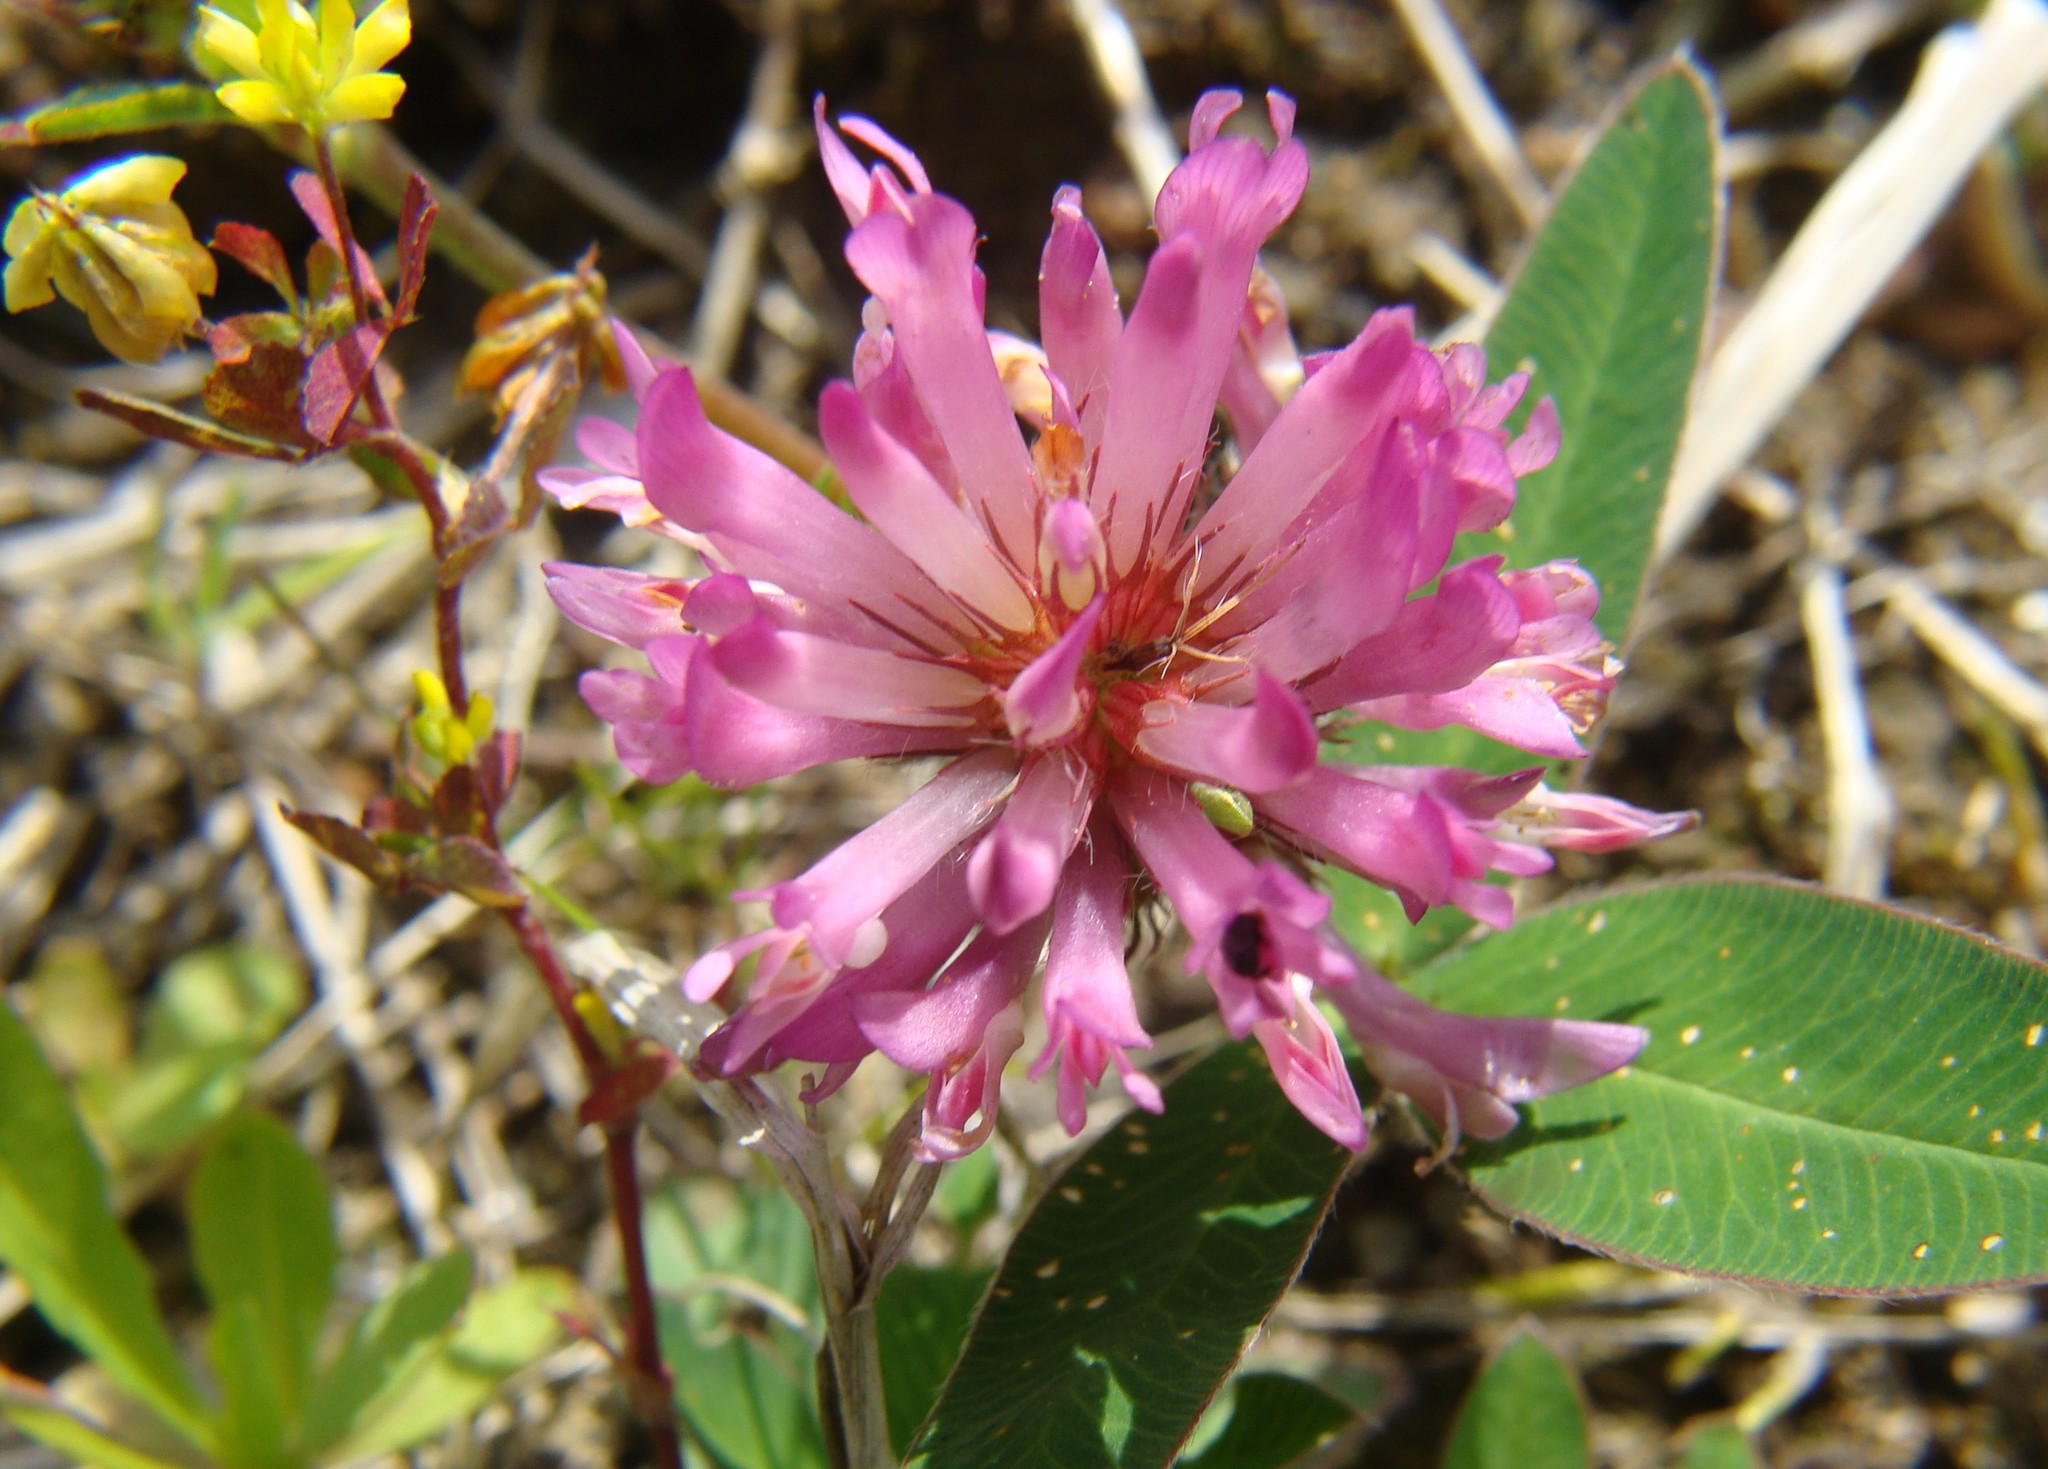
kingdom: Plantae
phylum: Tracheophyta
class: Magnoliopsida
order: Fabales
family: Fabaceae
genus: Trifolium
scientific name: Trifolium medium
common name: Zigzag clover
